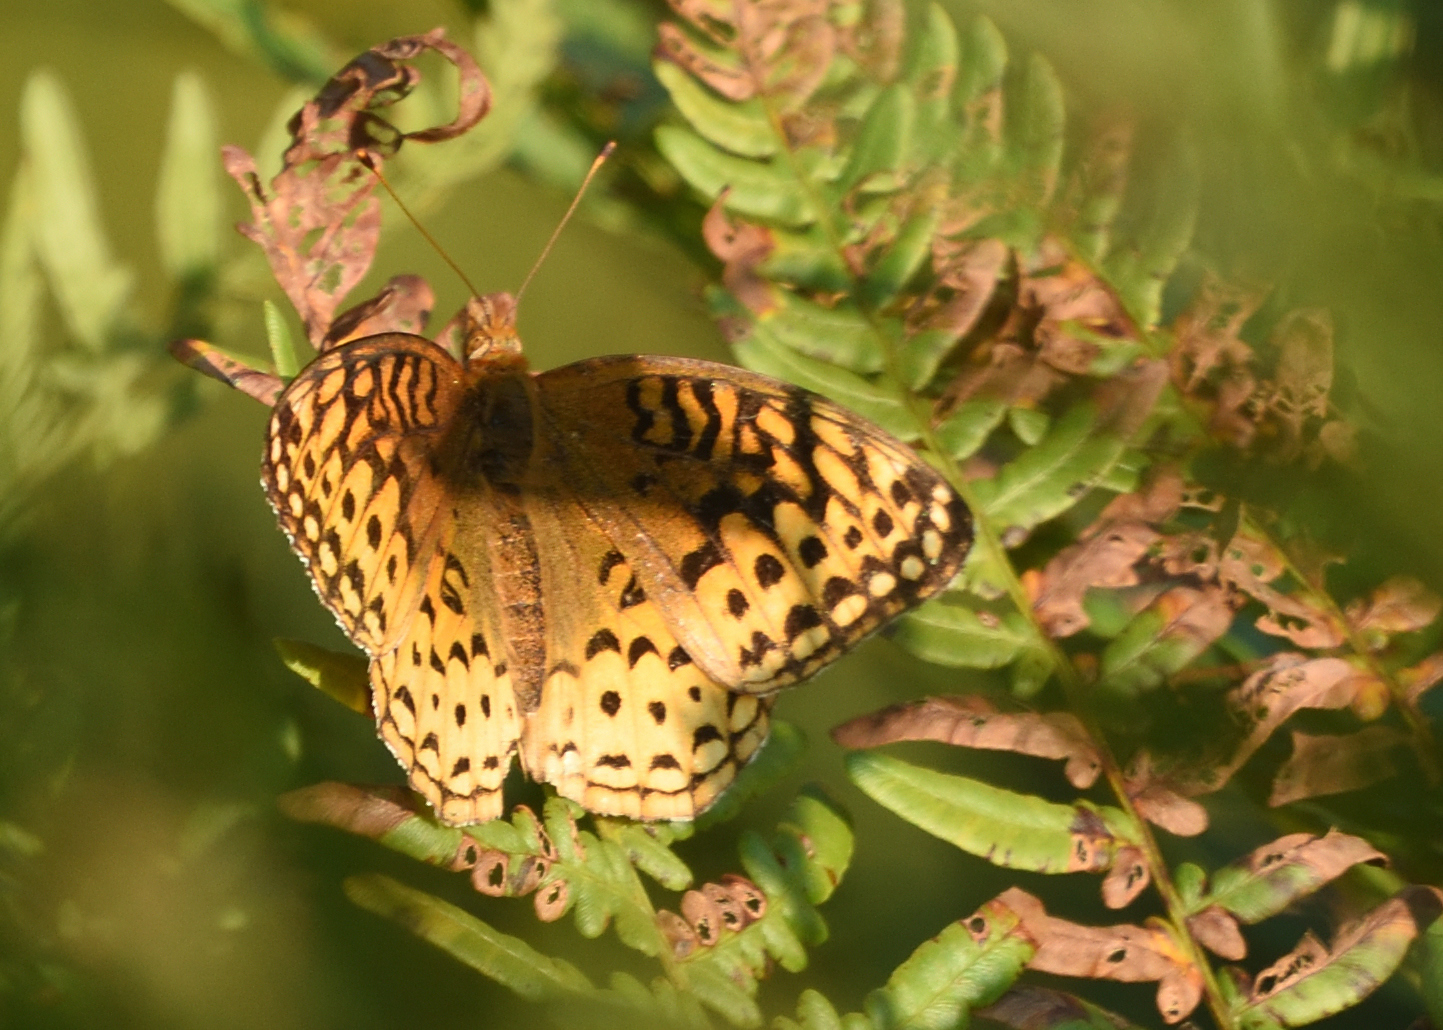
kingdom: Animalia
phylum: Arthropoda
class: Insecta
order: Lepidoptera
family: Nymphalidae
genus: Speyeria
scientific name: Speyeria cybele
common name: Great spangled fritillary
